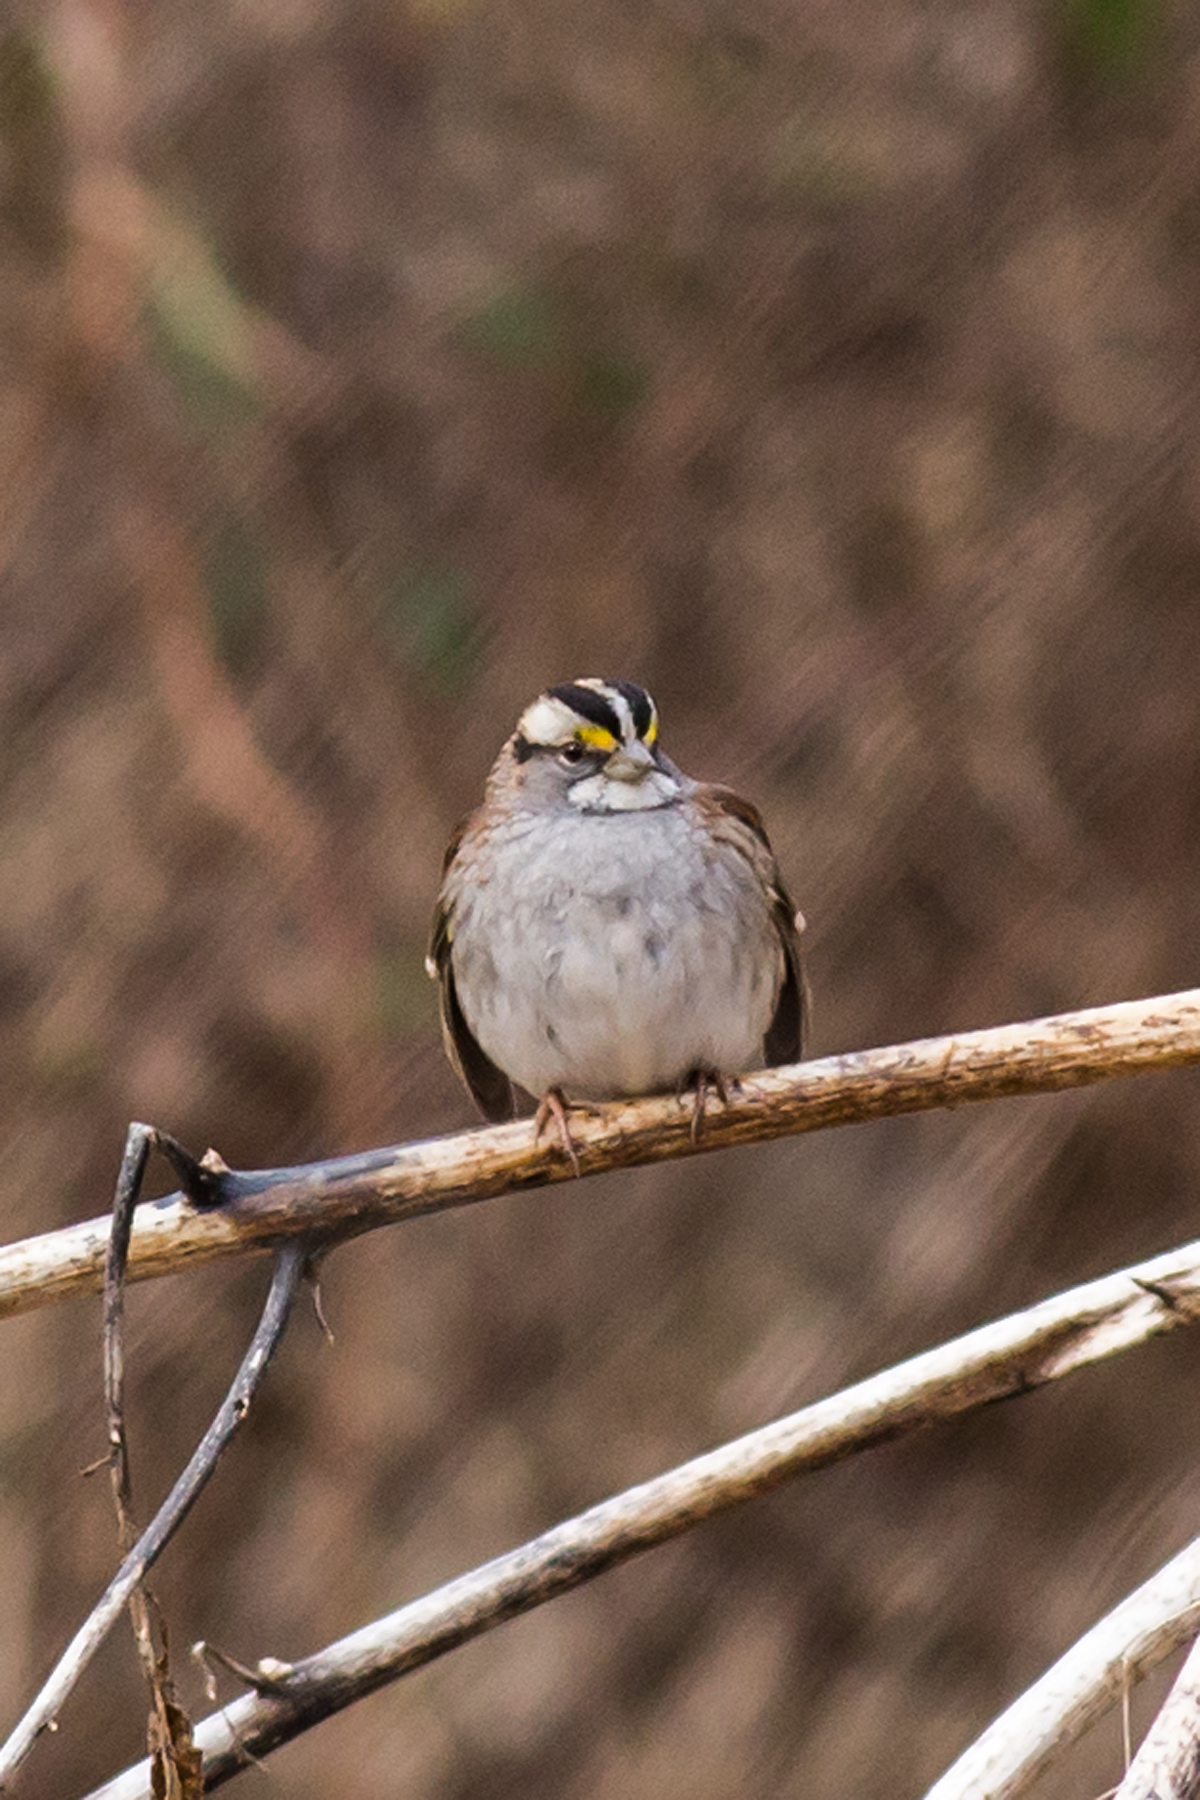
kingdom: Animalia
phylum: Chordata
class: Aves
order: Passeriformes
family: Passerellidae
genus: Zonotrichia
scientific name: Zonotrichia albicollis
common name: White-throated sparrow
